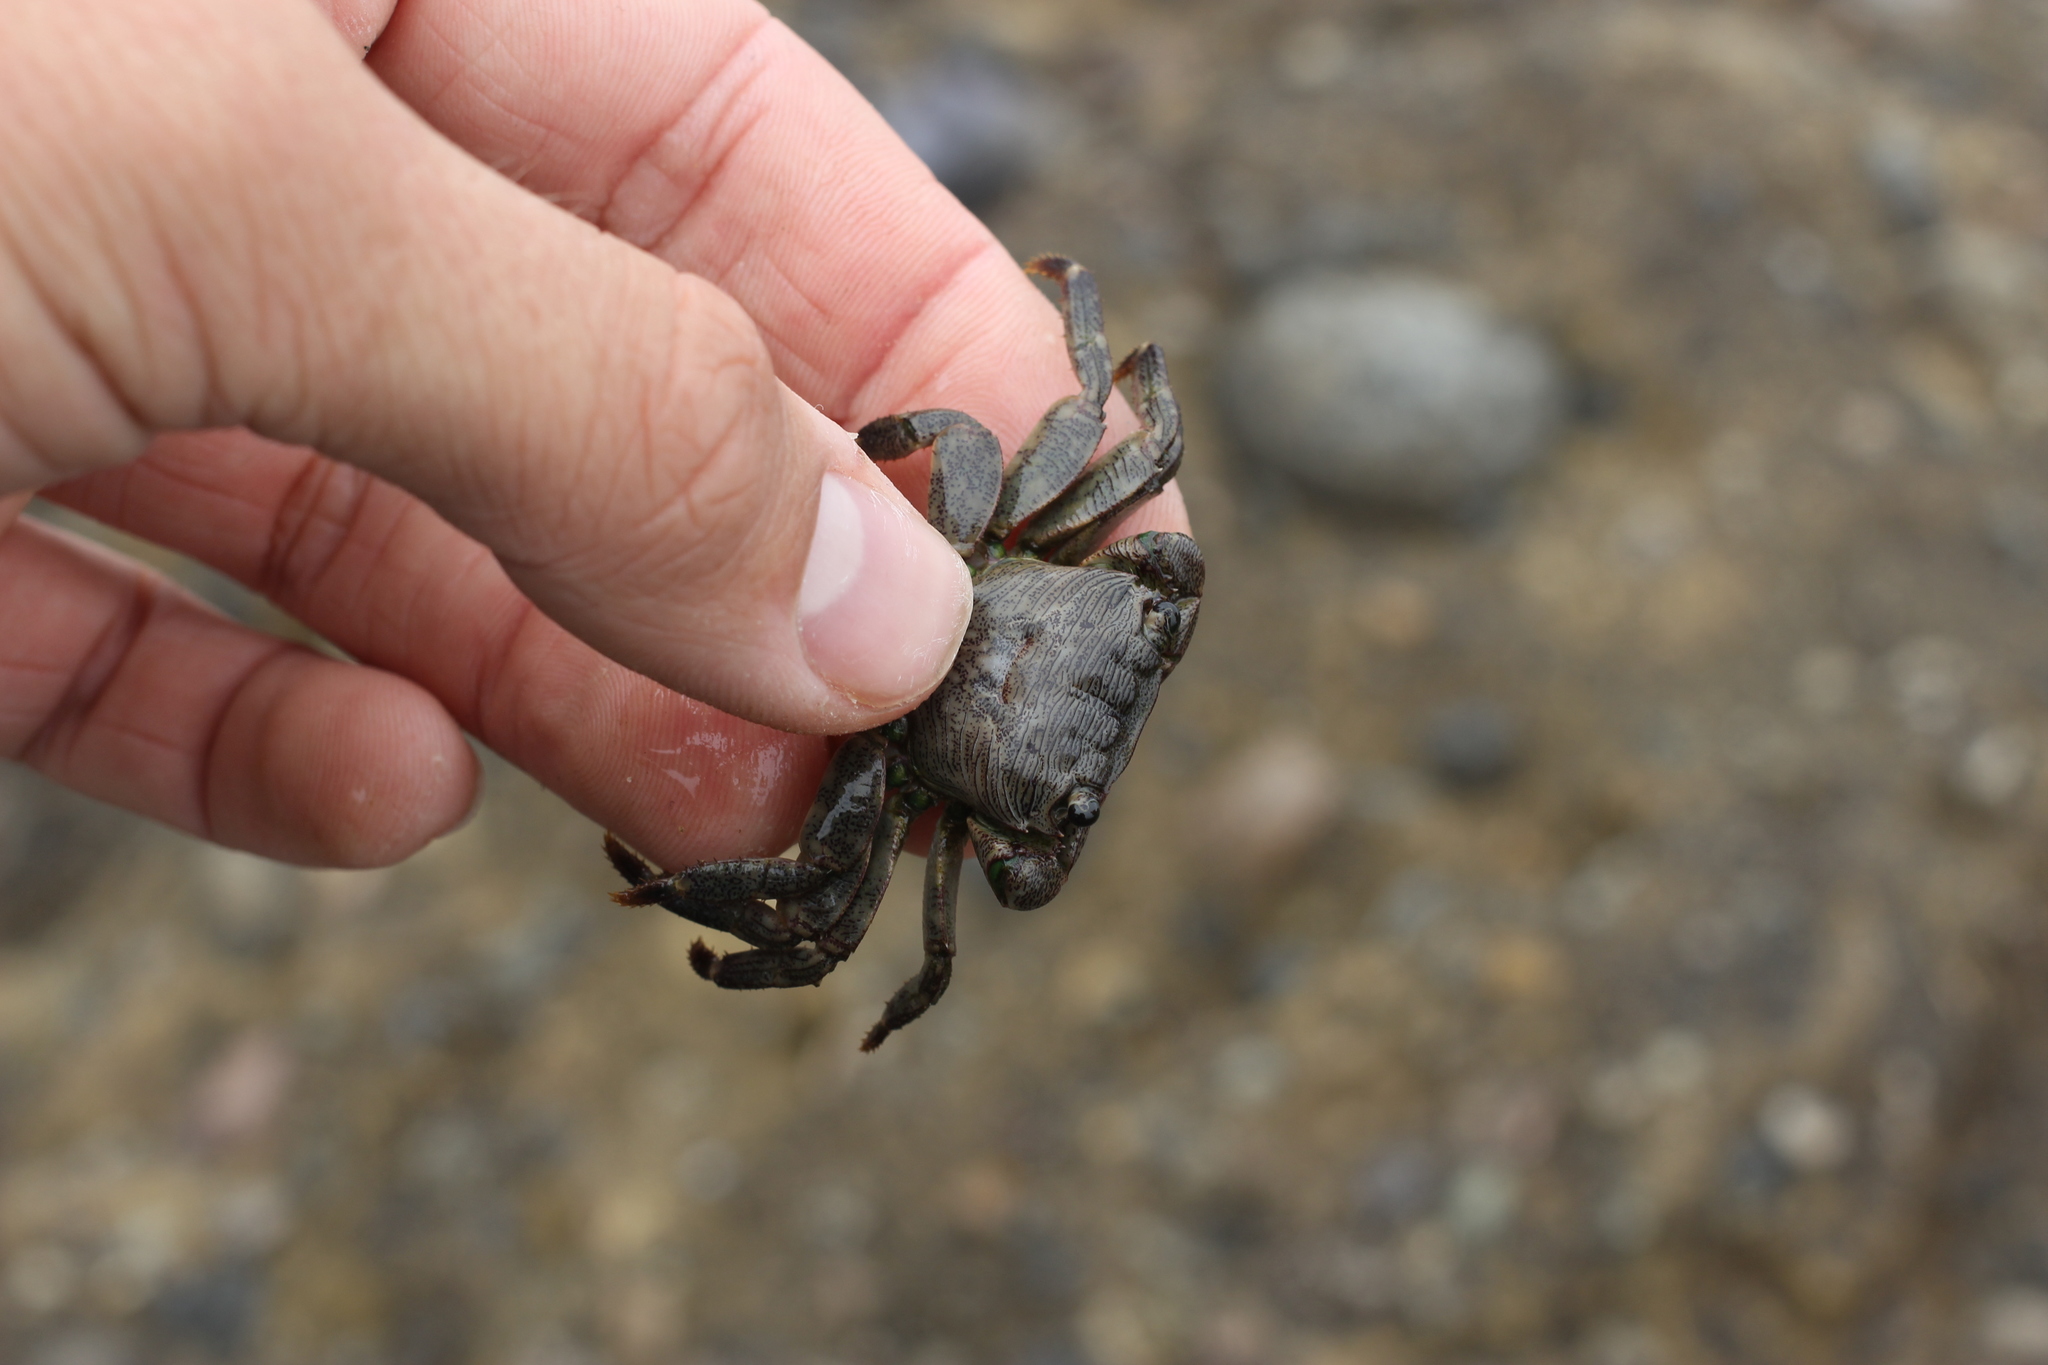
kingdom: Animalia
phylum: Arthropoda
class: Malacostraca
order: Decapoda
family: Grapsidae
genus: Pachygrapsus
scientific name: Pachygrapsus crassipes
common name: Striped shore crab
